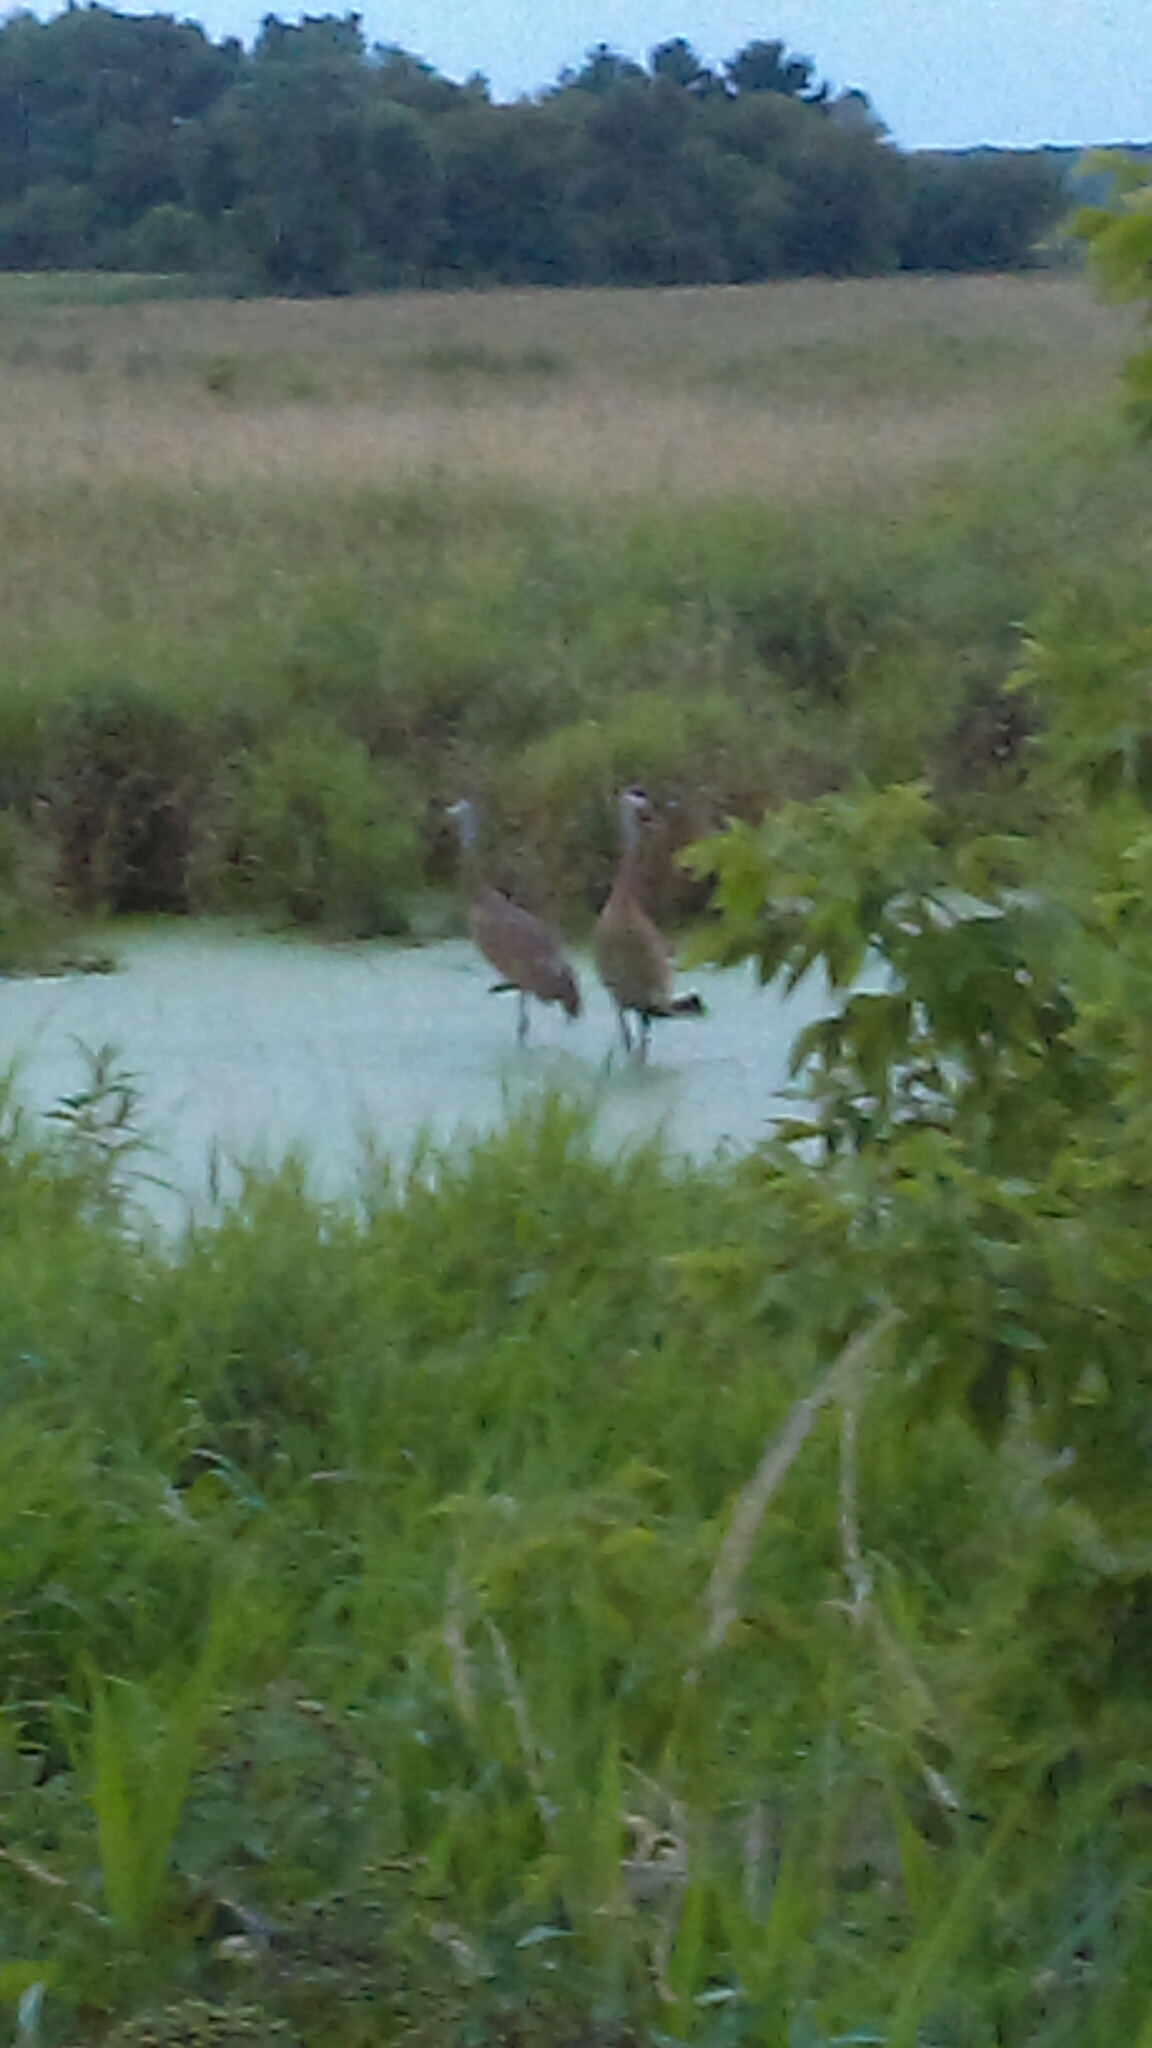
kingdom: Animalia
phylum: Chordata
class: Aves
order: Gruiformes
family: Gruidae
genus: Grus
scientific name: Grus canadensis
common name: Sandhill crane
